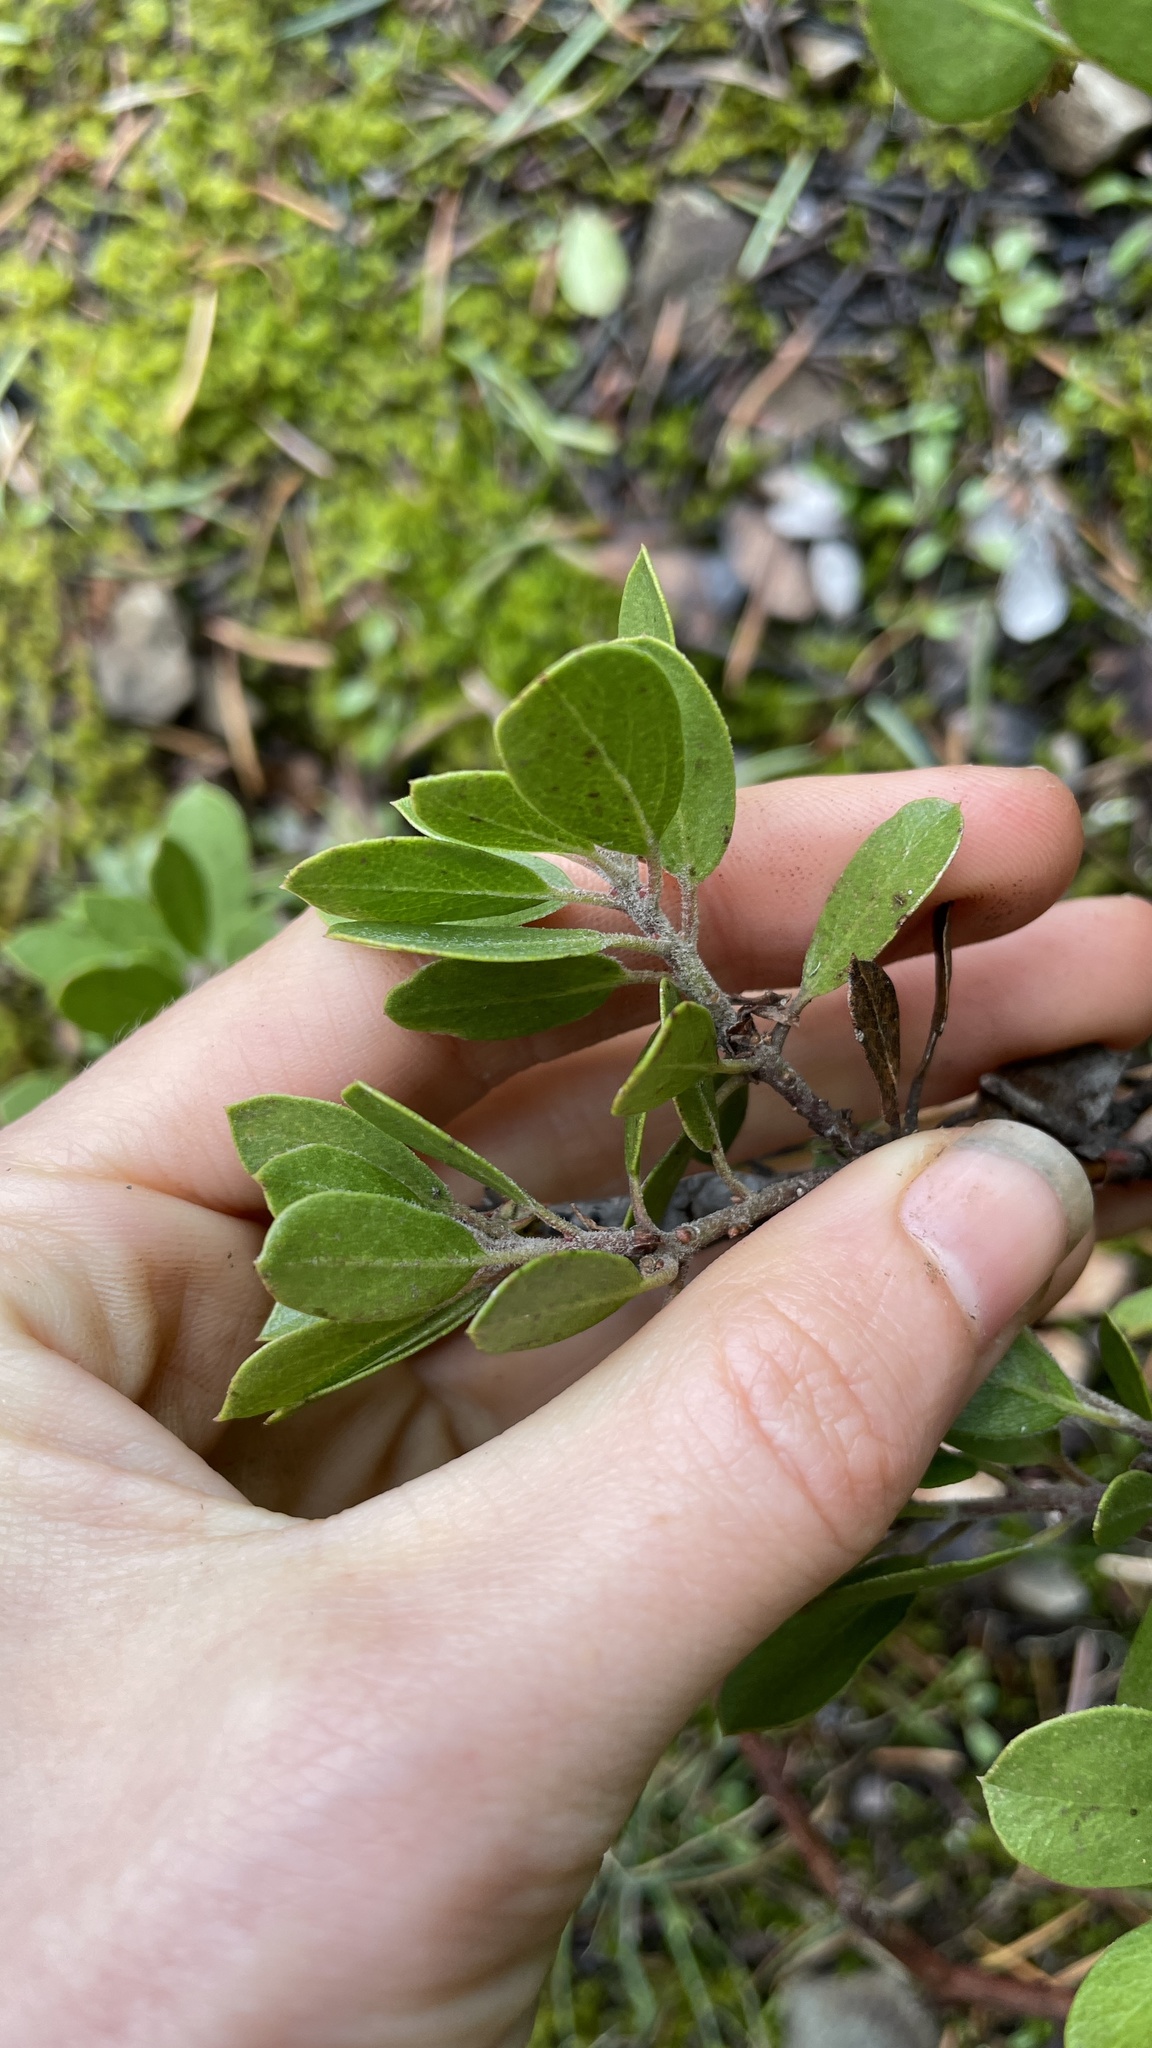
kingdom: Plantae
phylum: Tracheophyta
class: Magnoliopsida
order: Ericales
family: Ericaceae
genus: Arctostaphylos
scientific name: Arctostaphylos nevadensis
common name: Pinemat manzanita
